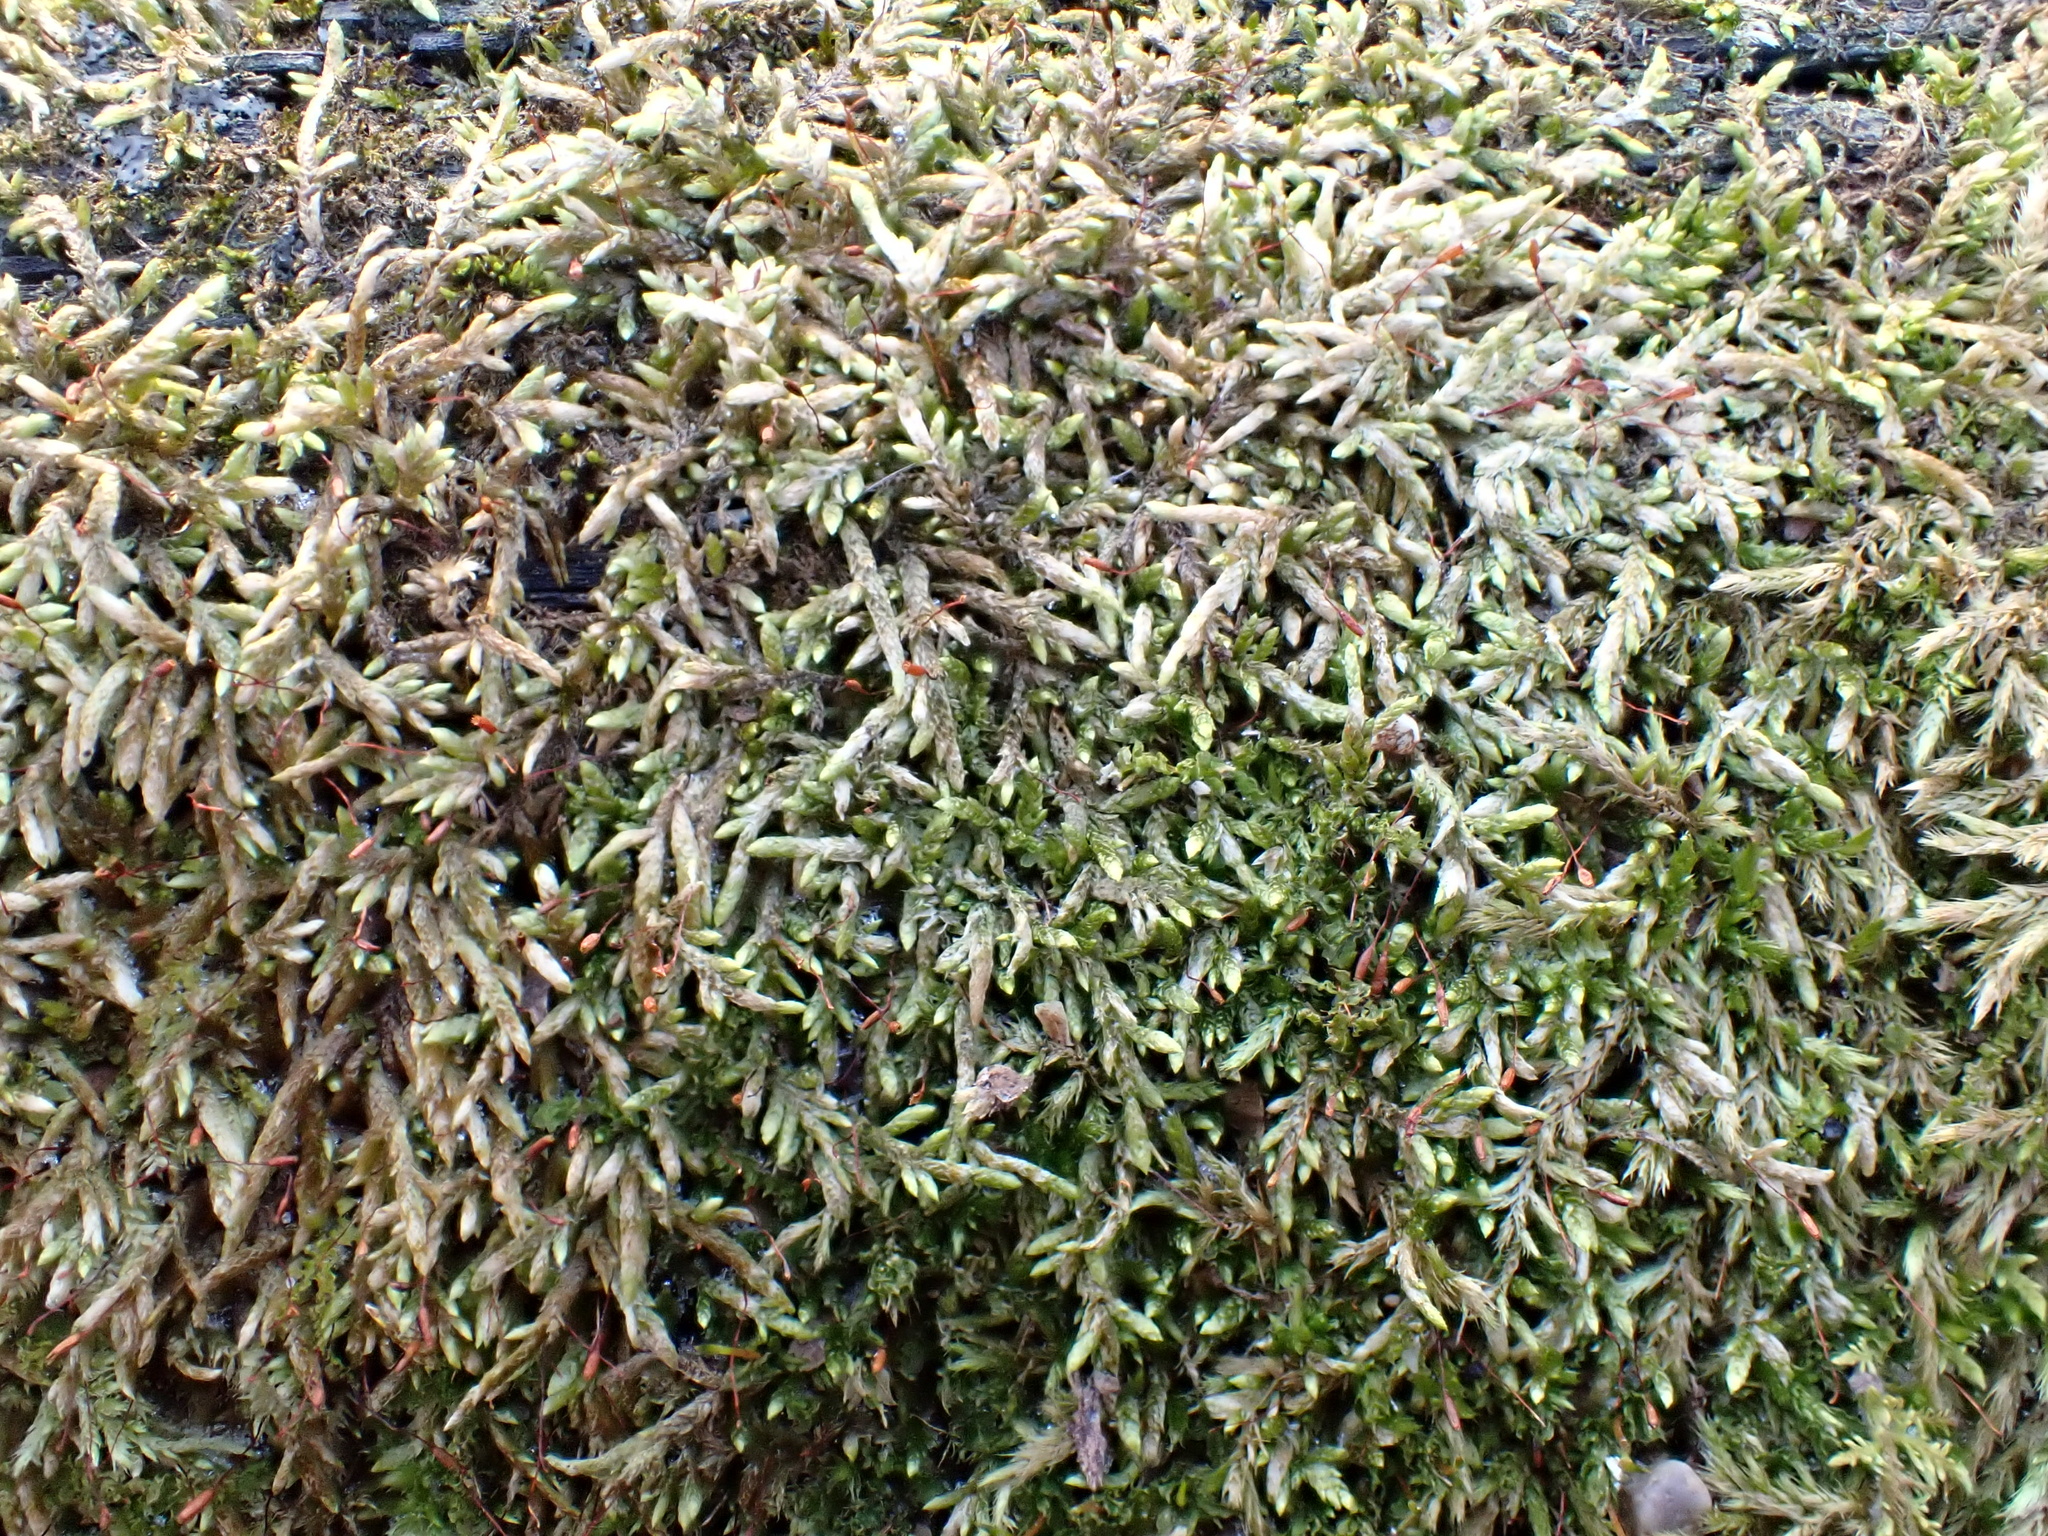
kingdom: Plantae
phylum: Bryophyta
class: Bryopsida
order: Hypnales
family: Entodontaceae
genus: Entodon
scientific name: Entodon seductrix
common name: Round-stemmed entodon moss
